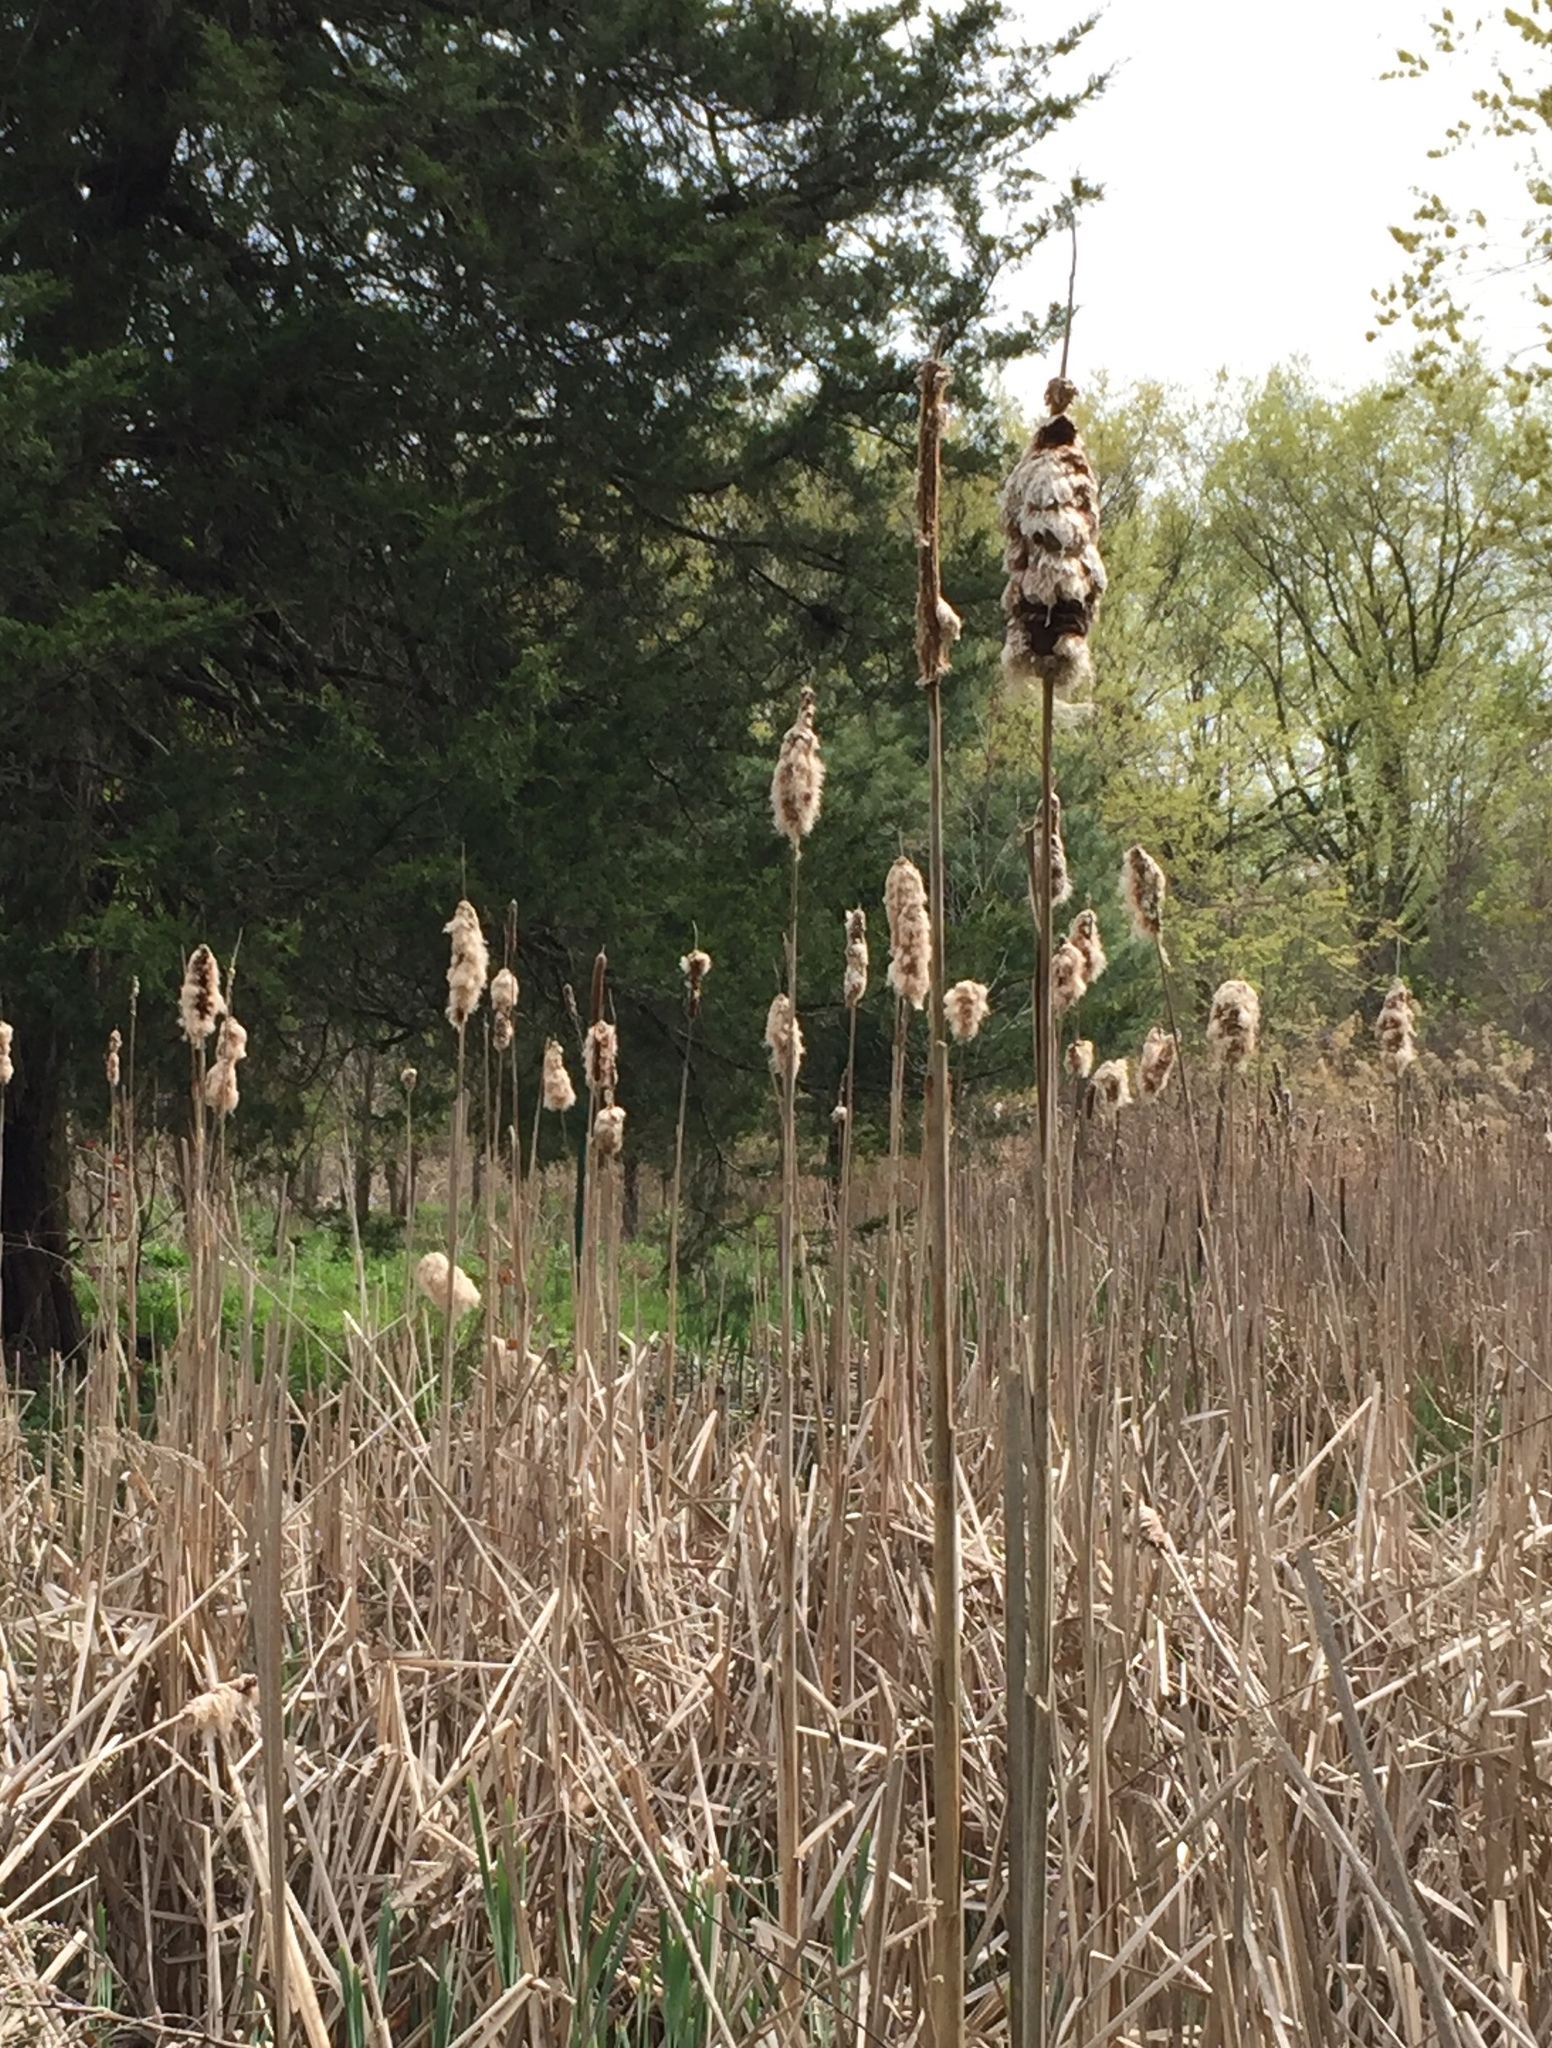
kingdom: Plantae
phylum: Tracheophyta
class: Liliopsida
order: Poales
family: Typhaceae
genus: Typha
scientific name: Typha
